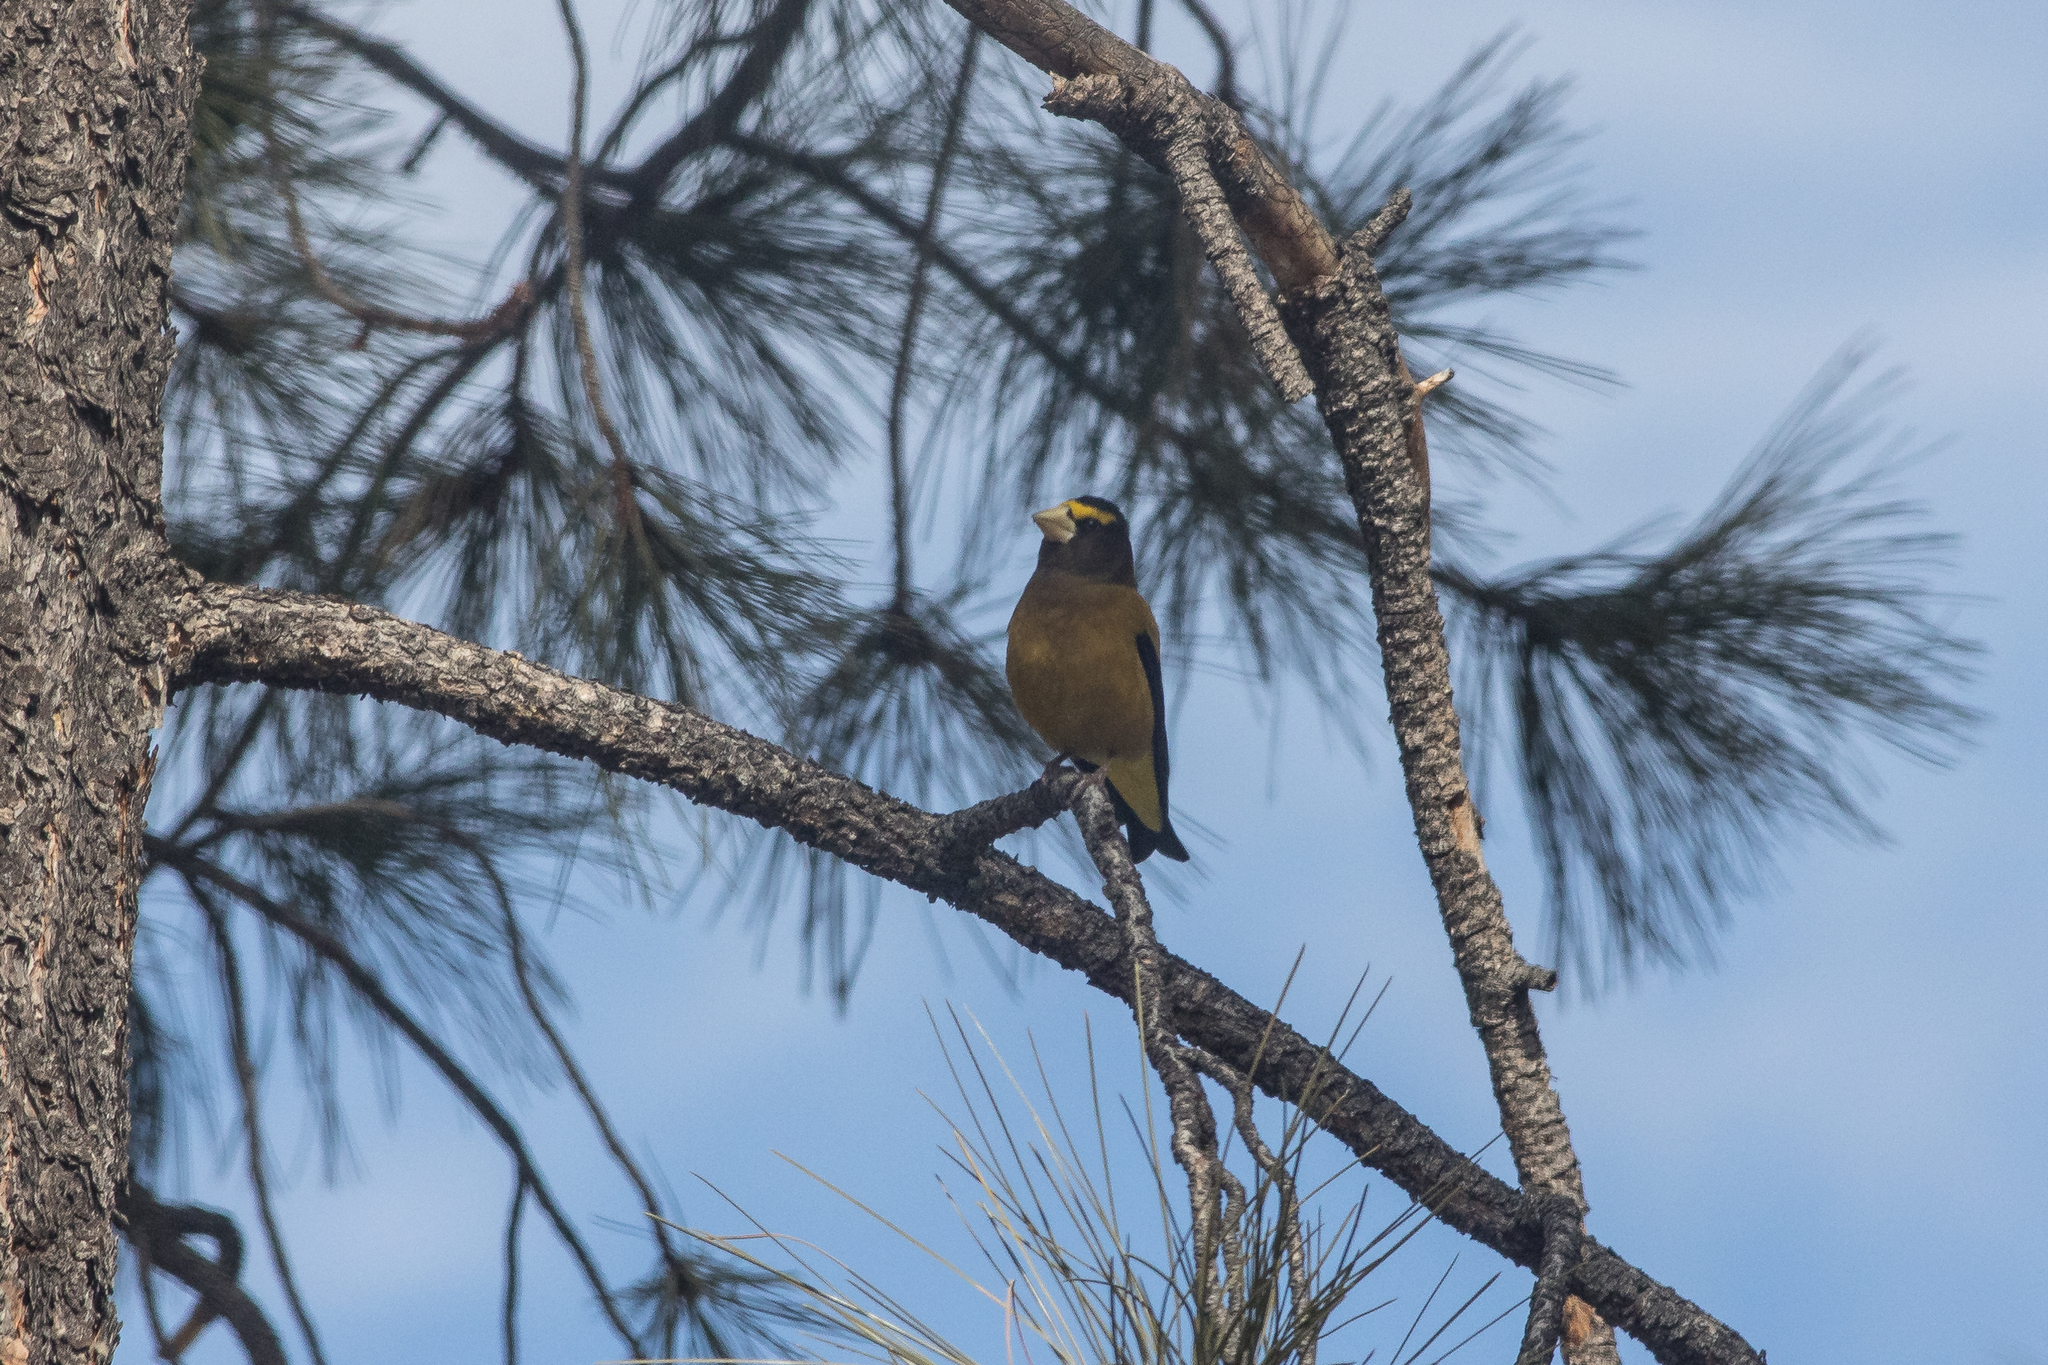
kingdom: Animalia
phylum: Chordata
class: Aves
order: Passeriformes
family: Fringillidae
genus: Hesperiphona
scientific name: Hesperiphona vespertina
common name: Evening grosbeak
